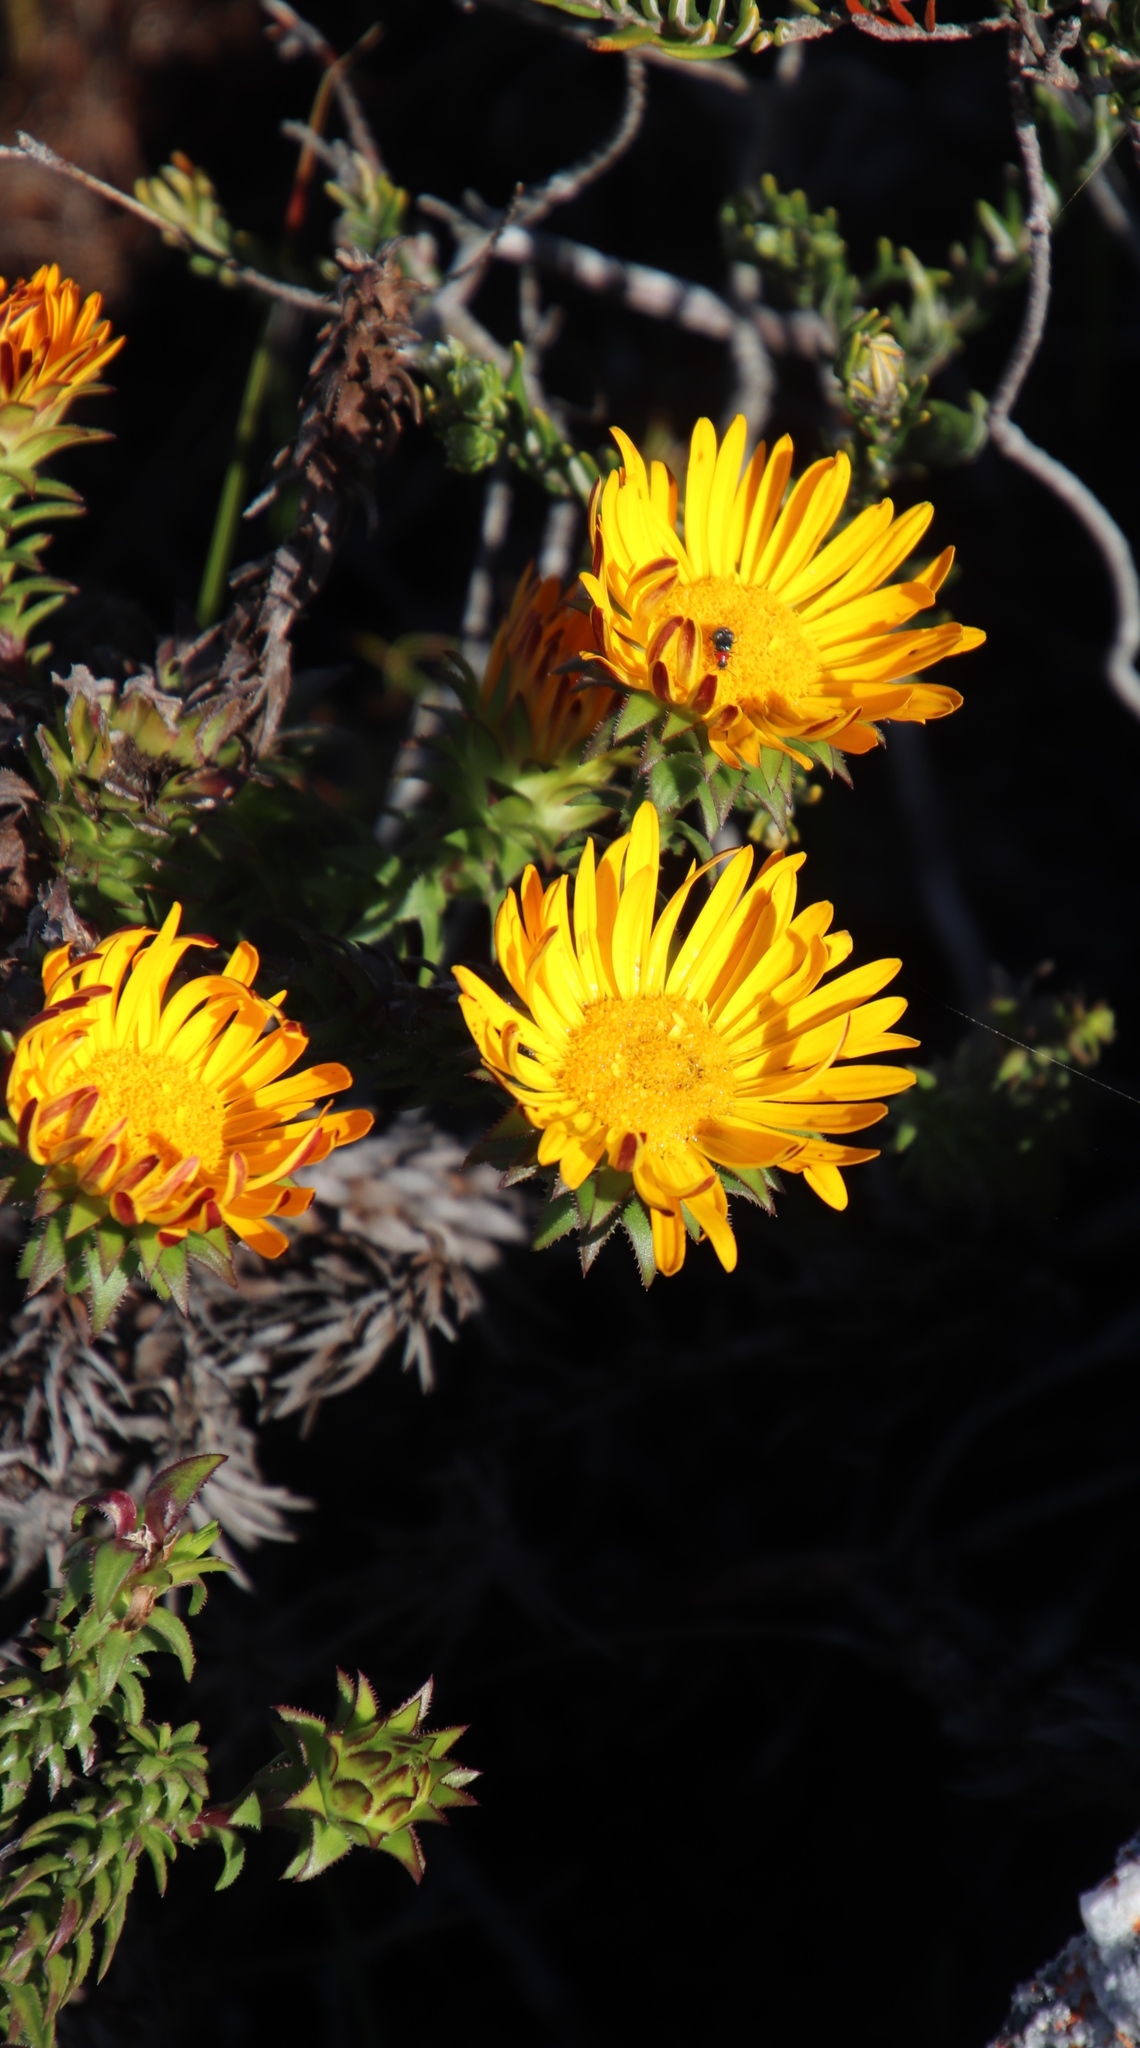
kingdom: Plantae
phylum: Tracheophyta
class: Magnoliopsida
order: Asterales
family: Asteraceae
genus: Oedera
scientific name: Oedera capensis
